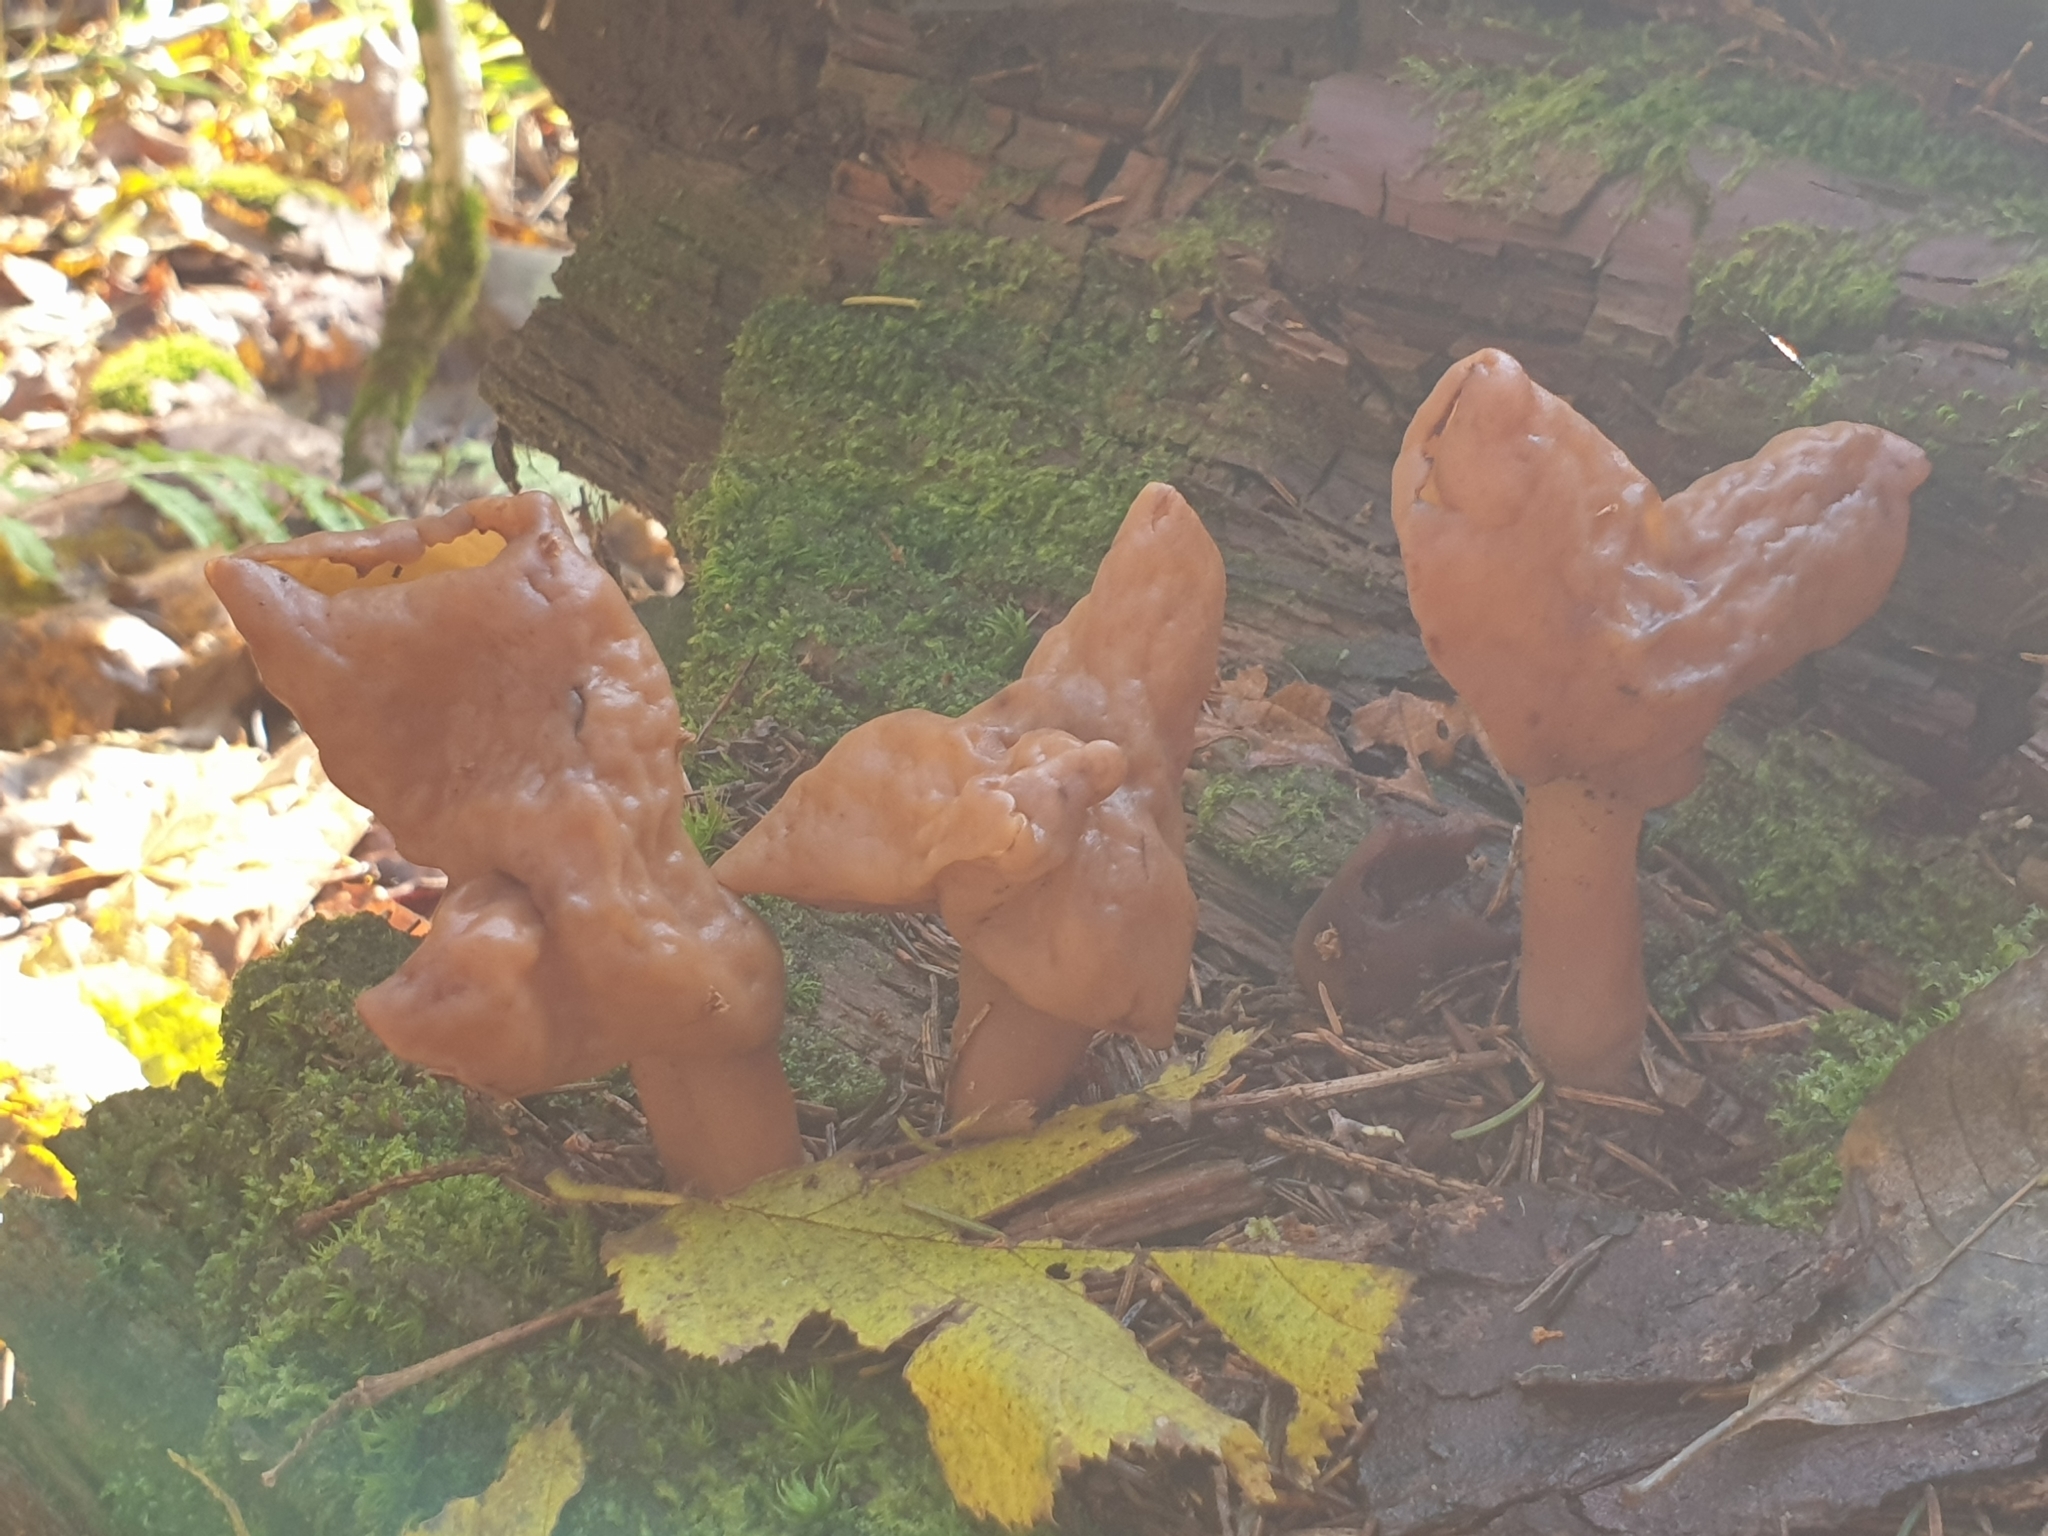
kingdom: Fungi
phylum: Ascomycota
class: Pezizomycetes
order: Pezizales
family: Discinaceae
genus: Gyromitra
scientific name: Gyromitra infula
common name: Pouched false morel
